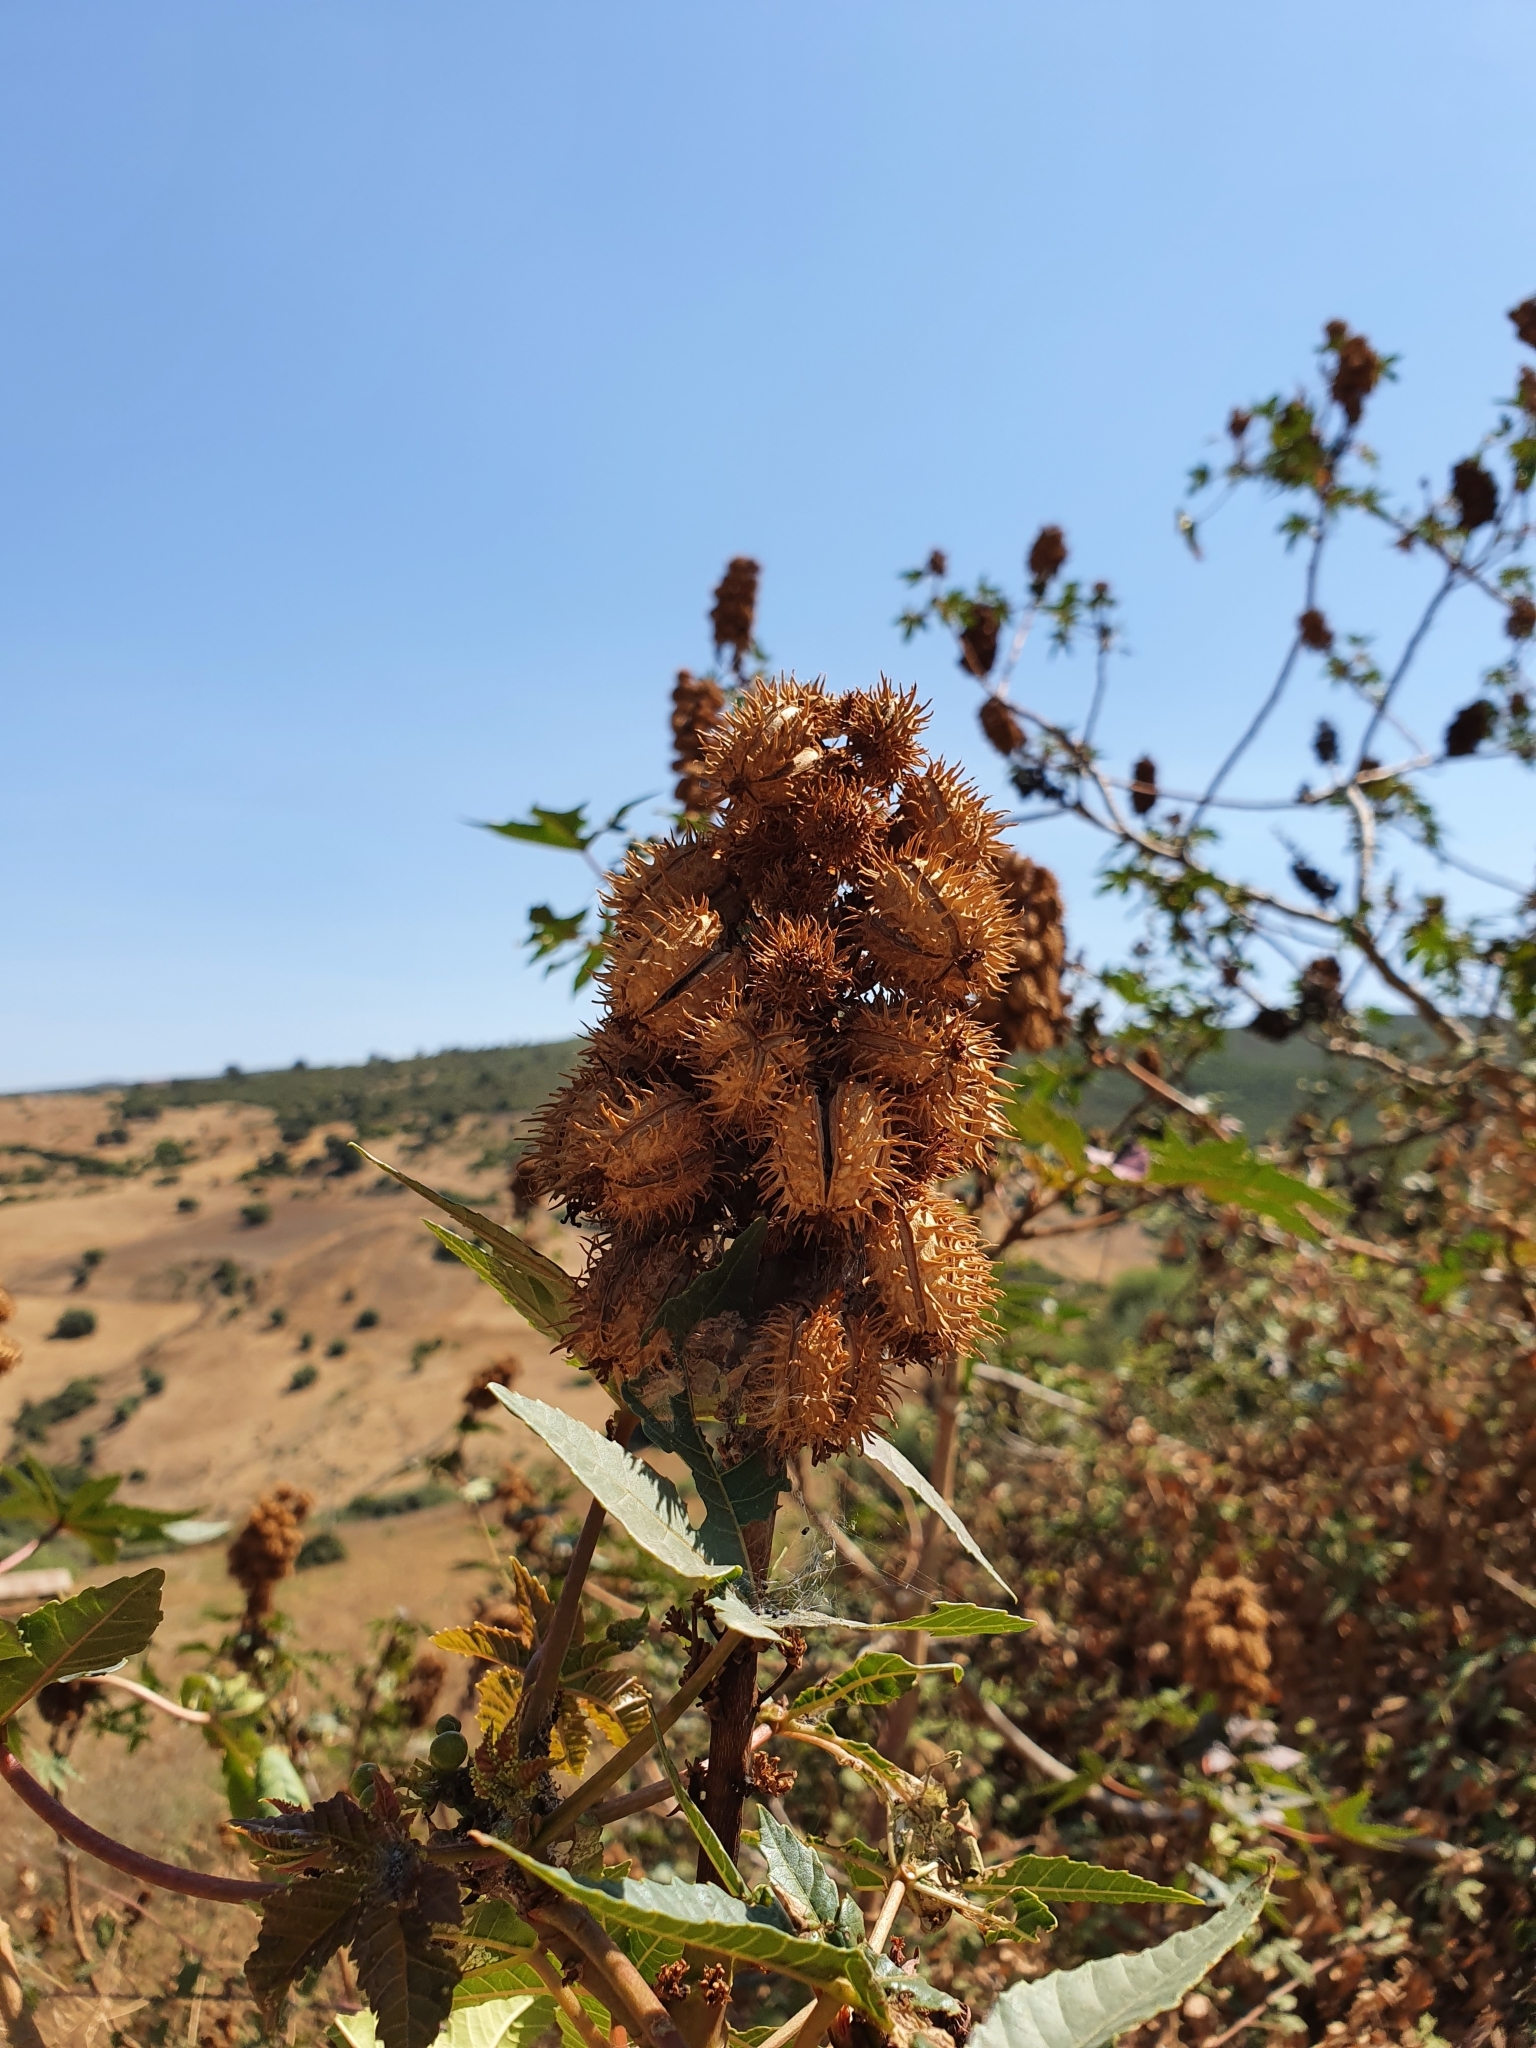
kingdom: Plantae
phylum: Tracheophyta
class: Magnoliopsida
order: Malpighiales
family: Euphorbiaceae
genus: Ricinus
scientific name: Ricinus communis
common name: Castor-oil-plant
